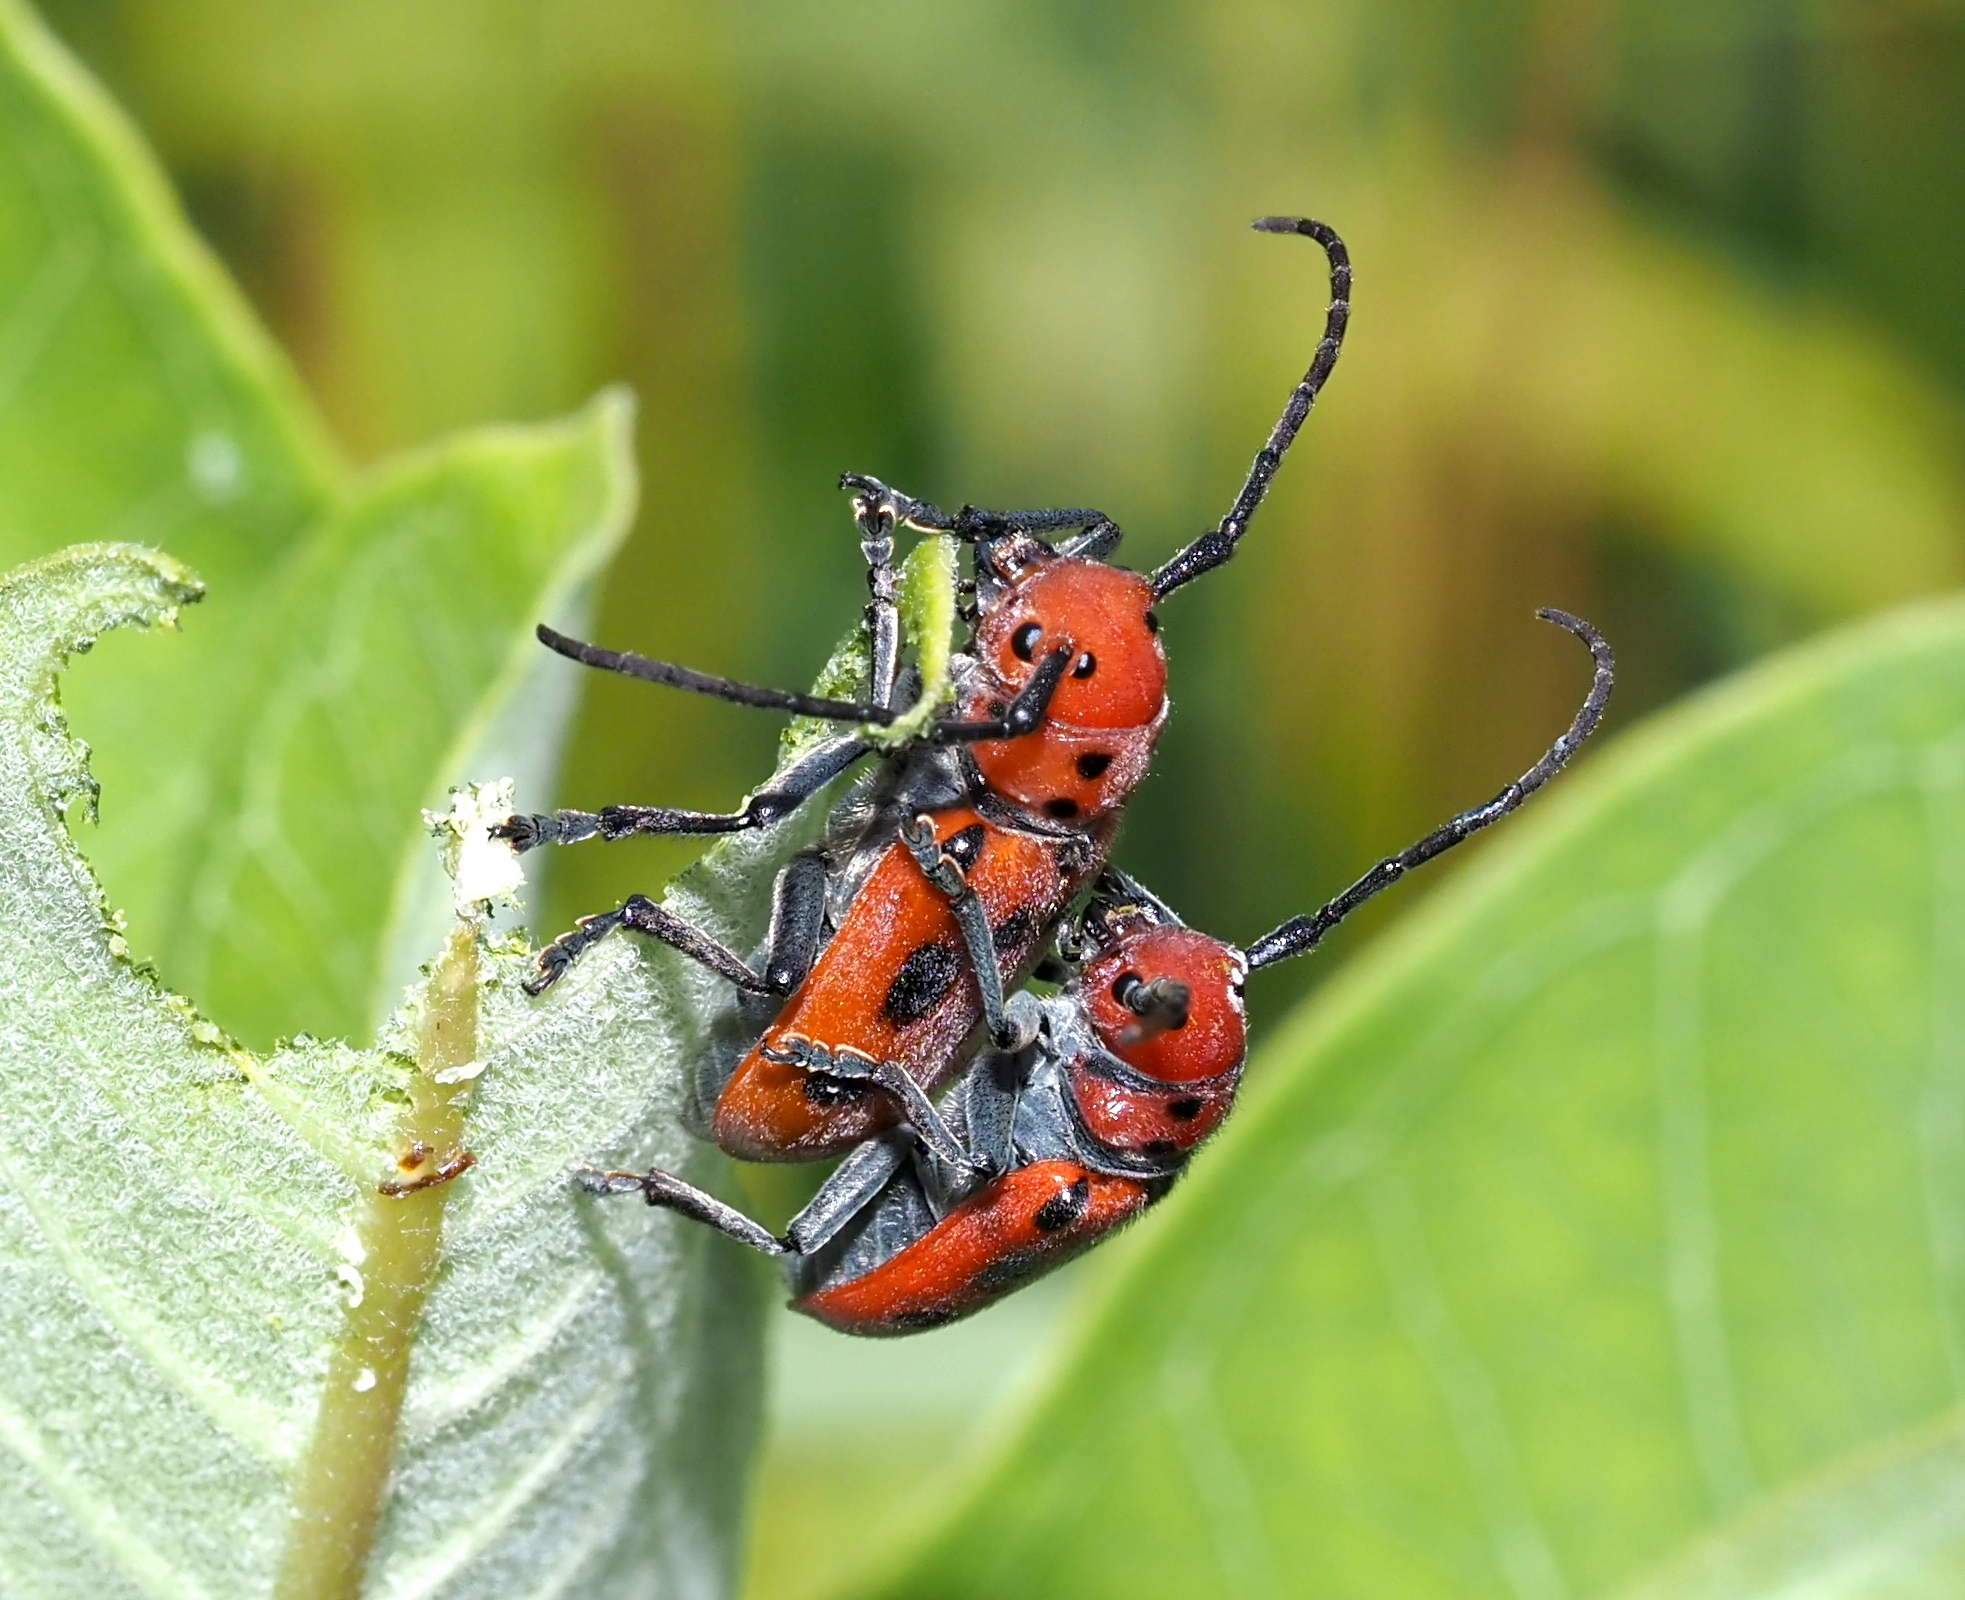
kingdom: Animalia
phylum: Arthropoda
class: Insecta
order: Coleoptera
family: Cerambycidae
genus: Tetraopes
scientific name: Tetraopes tetrophthalmus
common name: Red milkweed beetle
